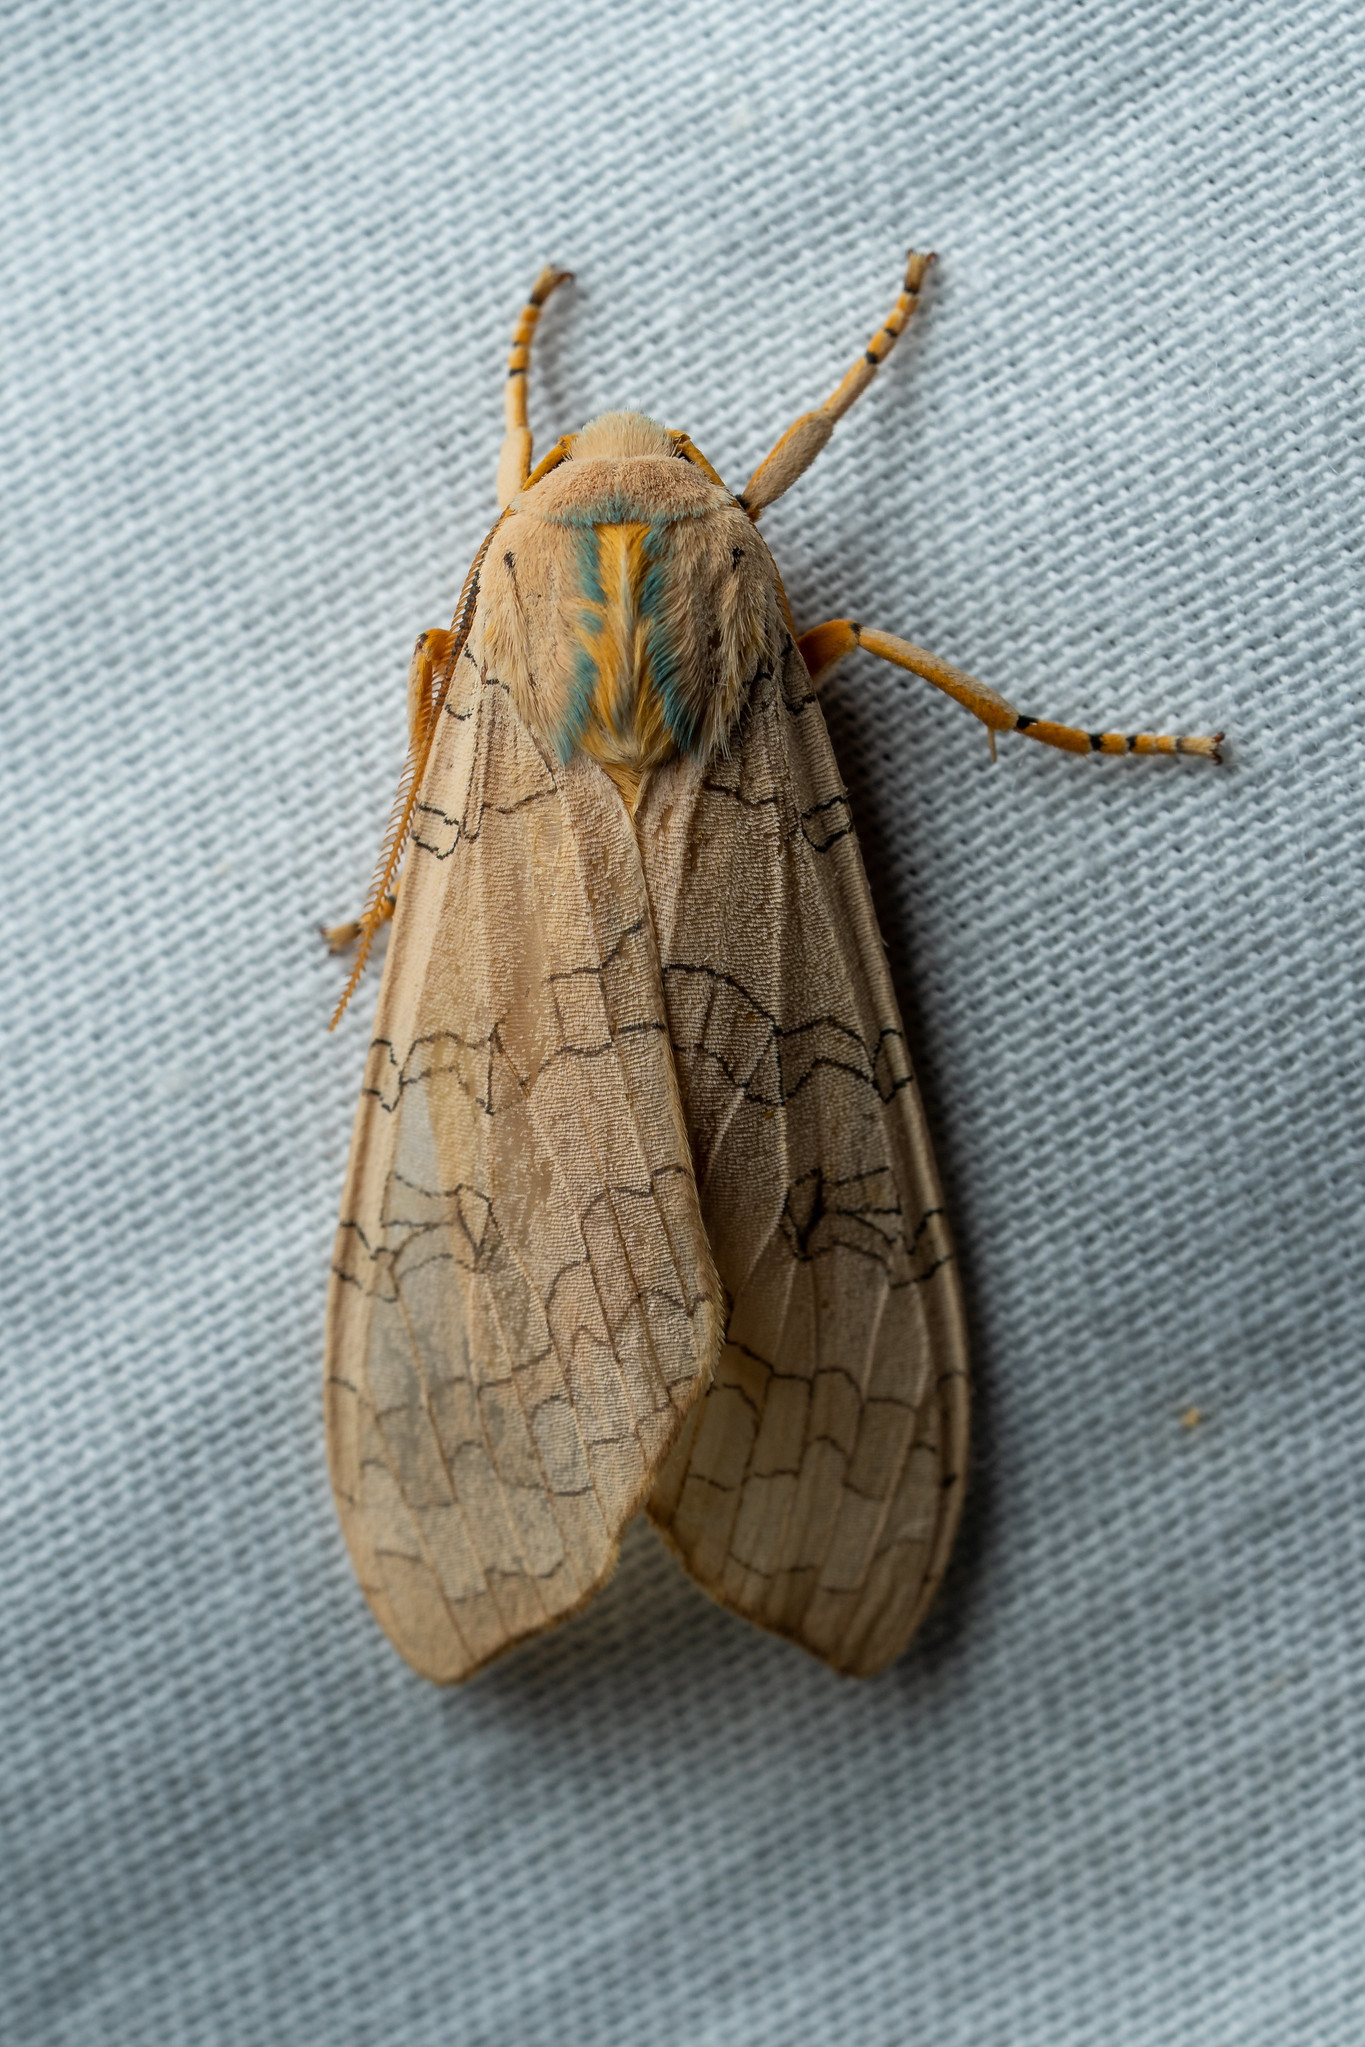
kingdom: Animalia
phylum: Arthropoda
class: Insecta
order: Lepidoptera
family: Erebidae
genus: Halysidota
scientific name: Halysidota
